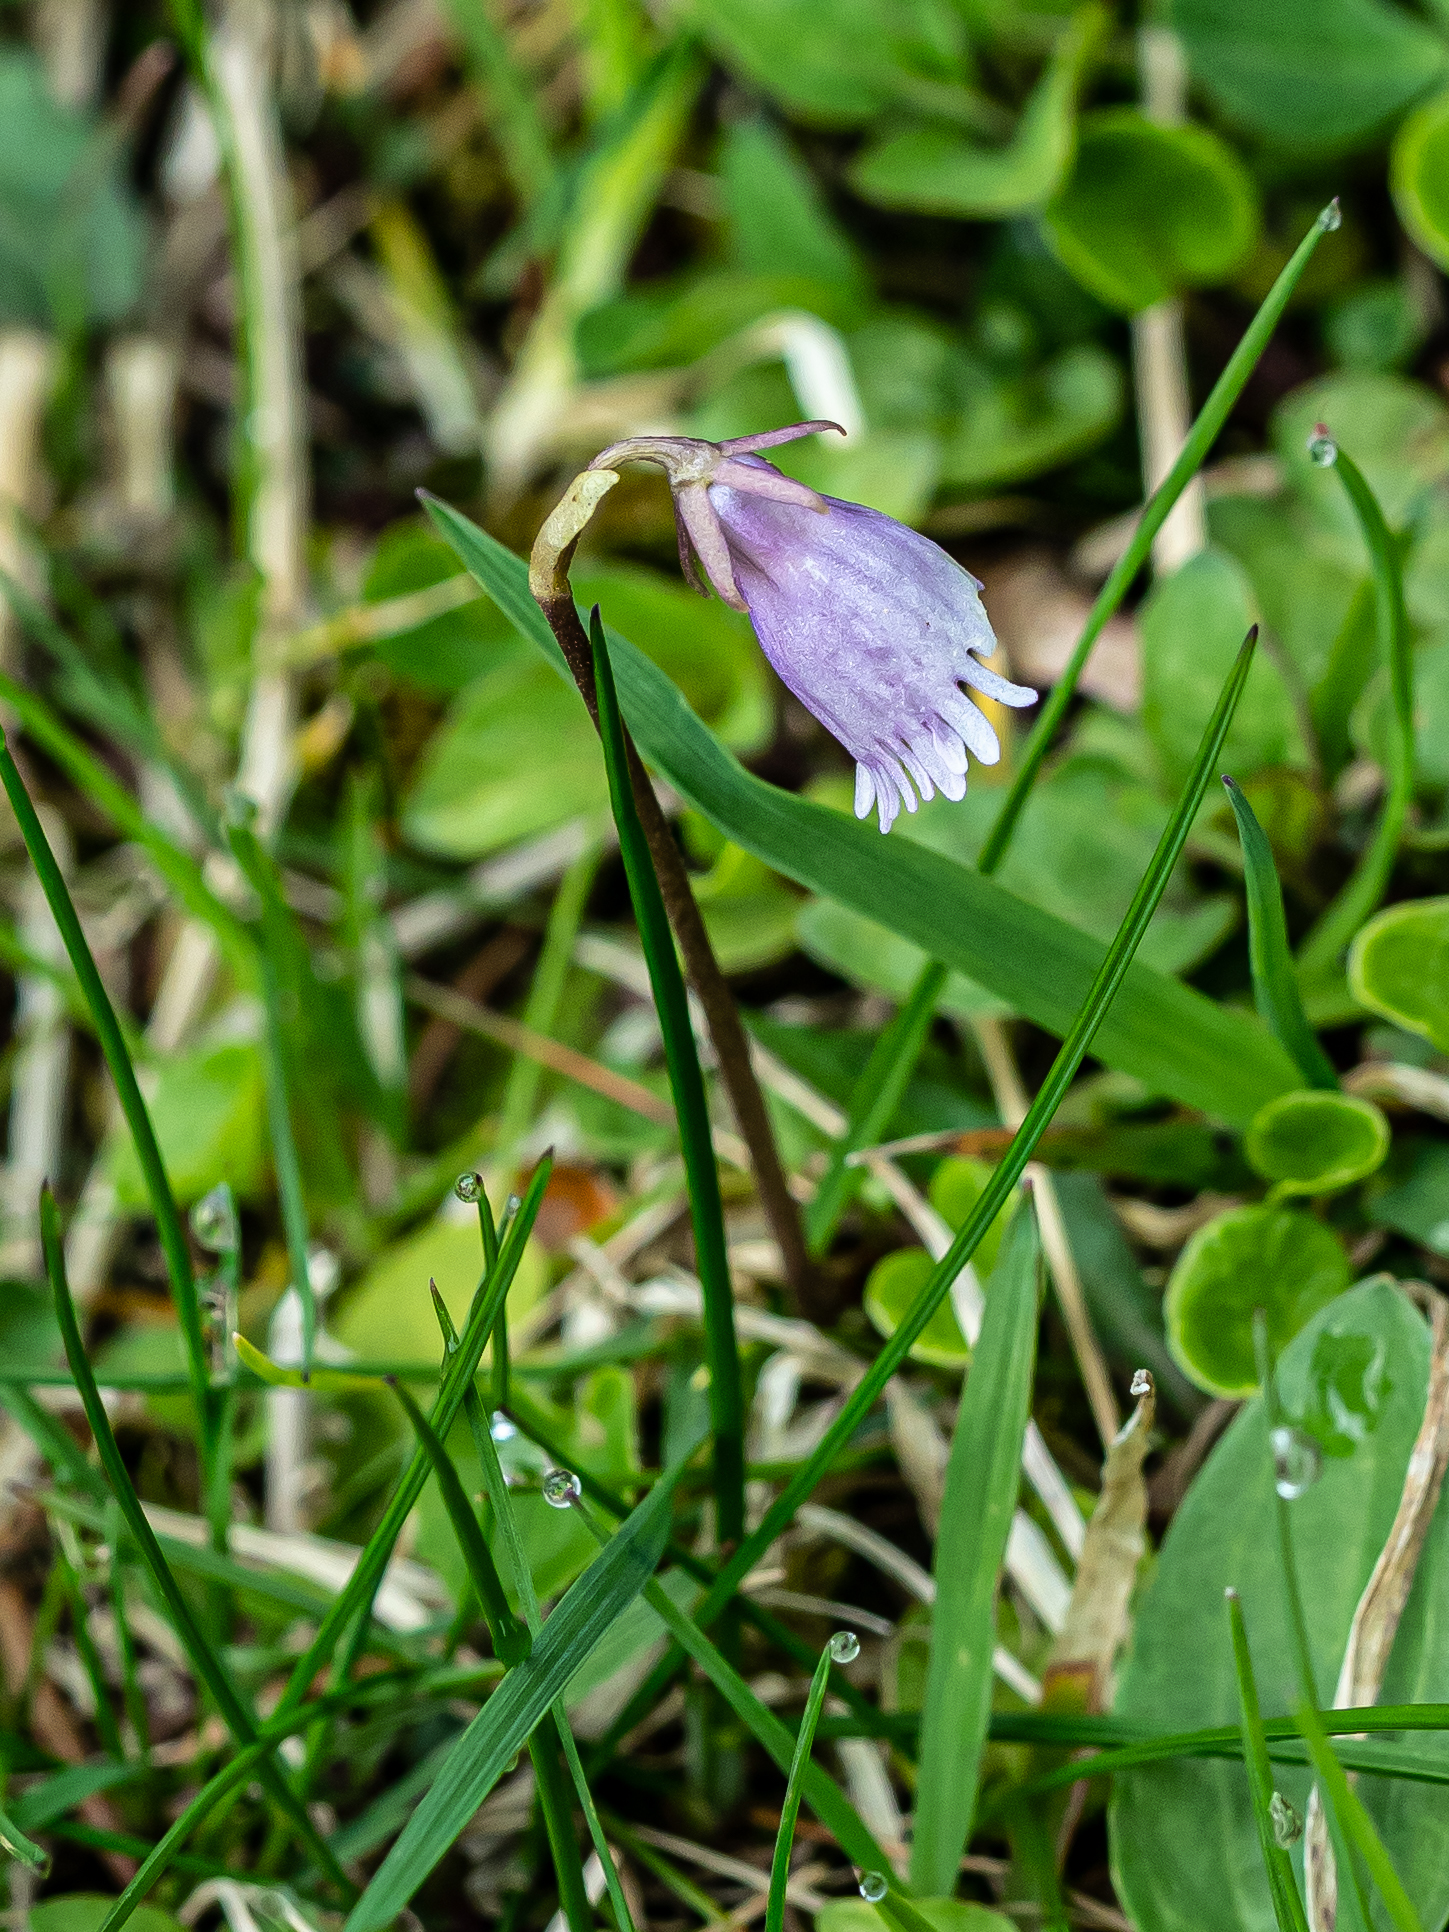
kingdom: Plantae
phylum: Tracheophyta
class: Magnoliopsida
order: Ericales
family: Primulaceae
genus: Soldanella
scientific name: Soldanella alpicola
